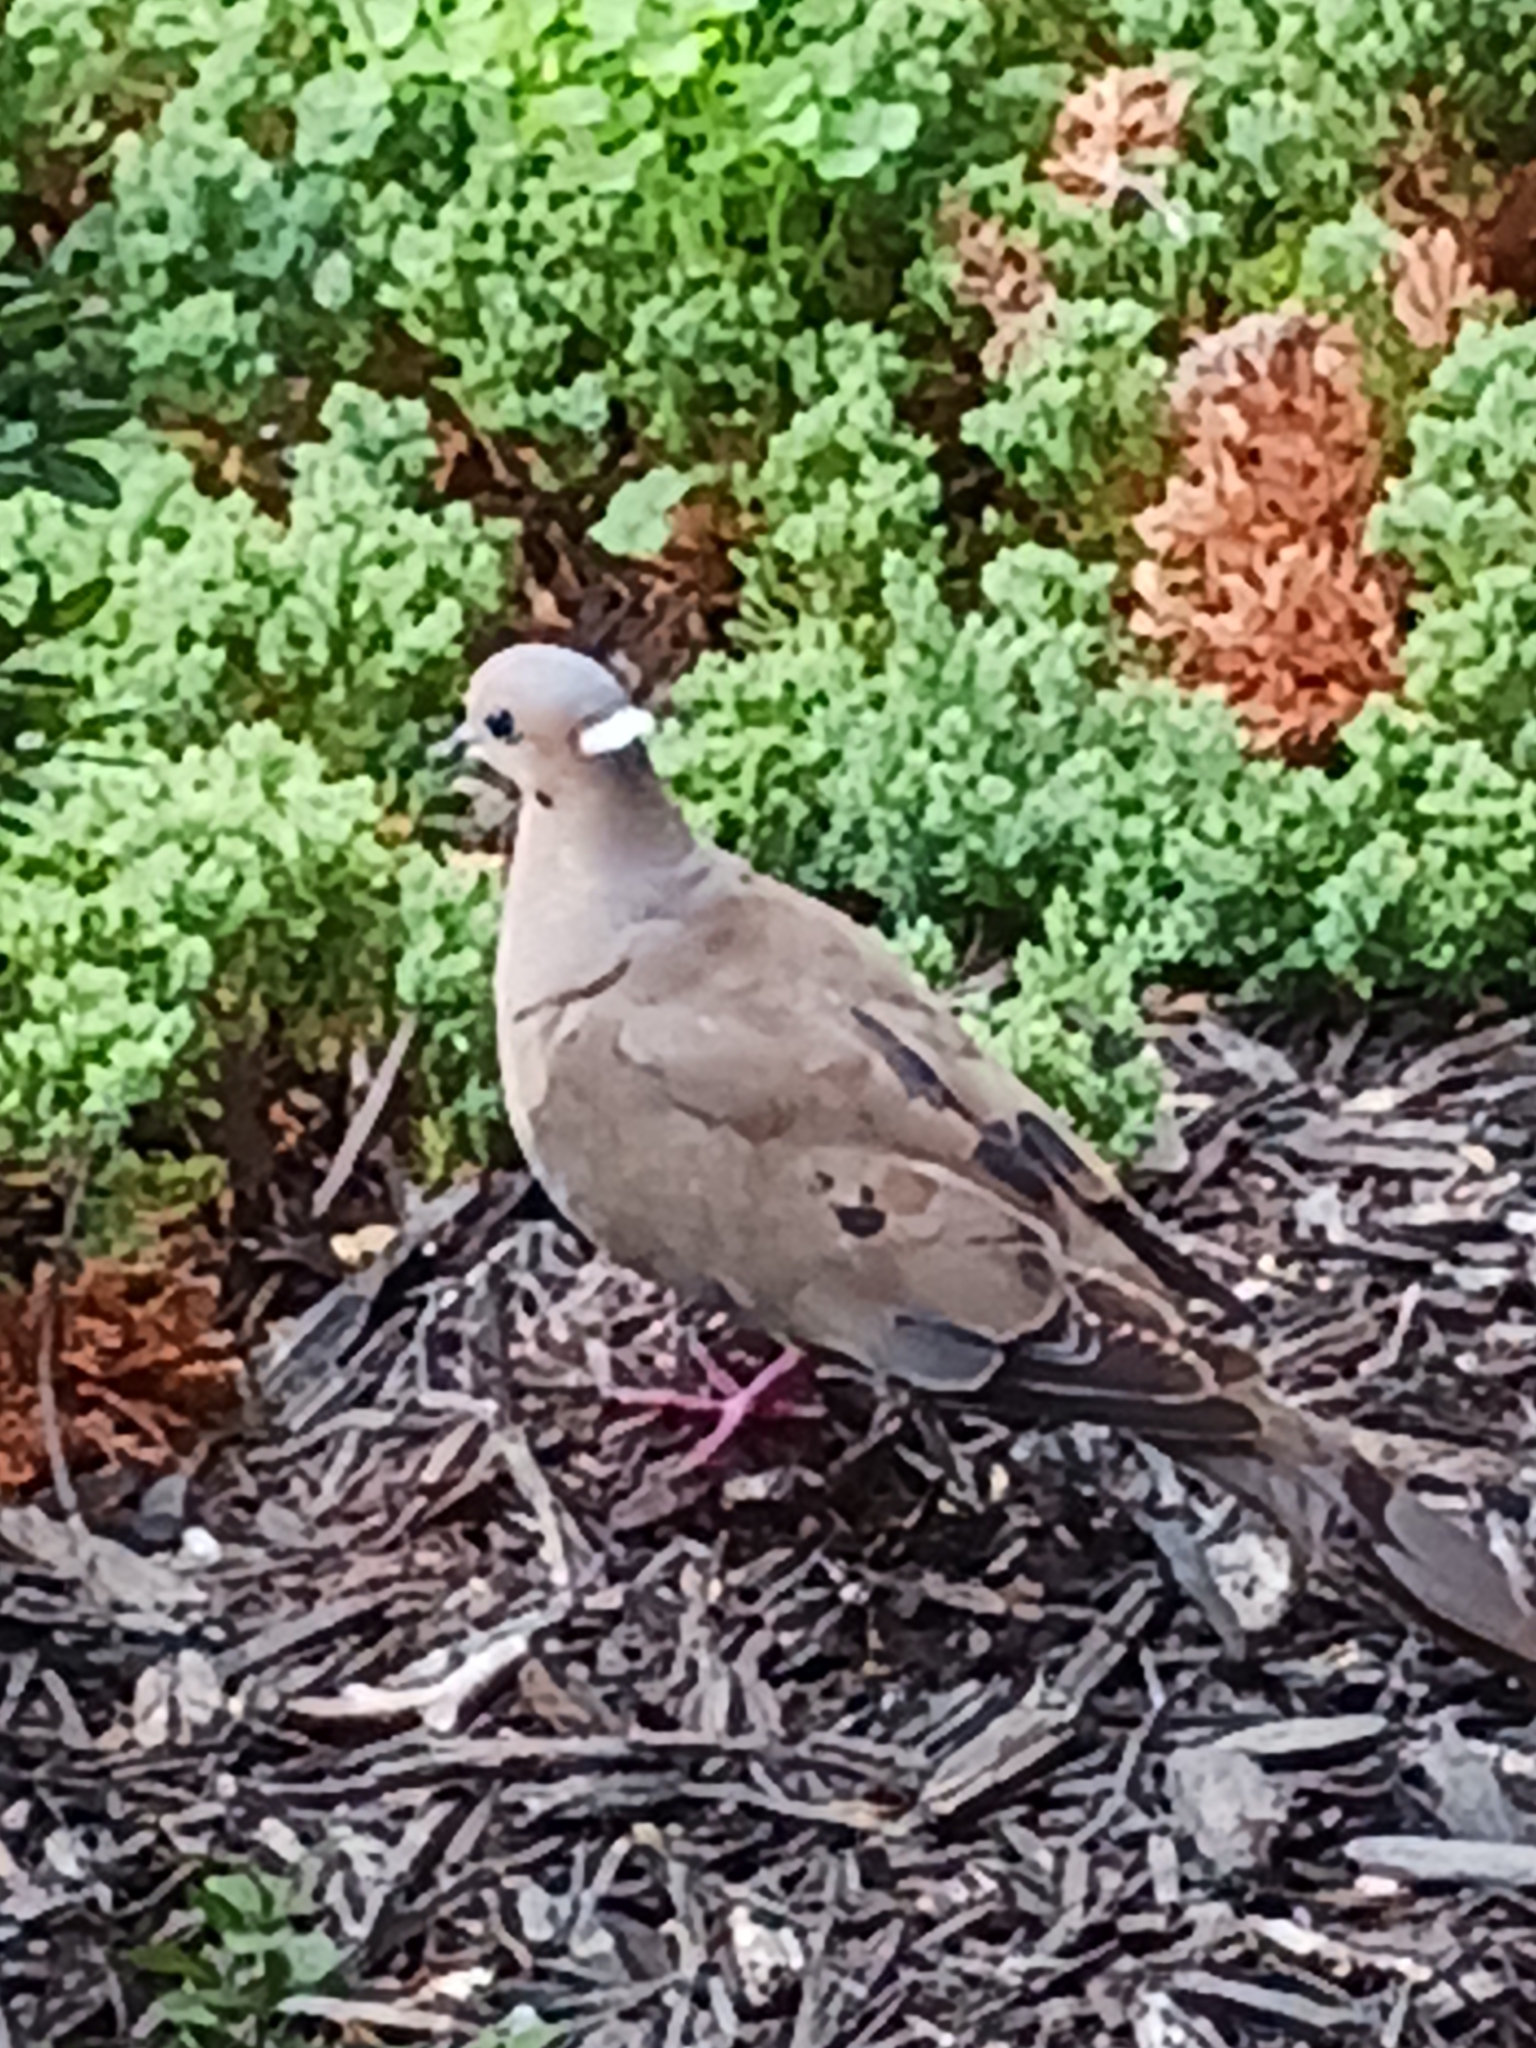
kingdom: Animalia
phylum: Chordata
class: Aves
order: Columbiformes
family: Columbidae
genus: Zenaida
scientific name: Zenaida macroura
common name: Mourning dove
